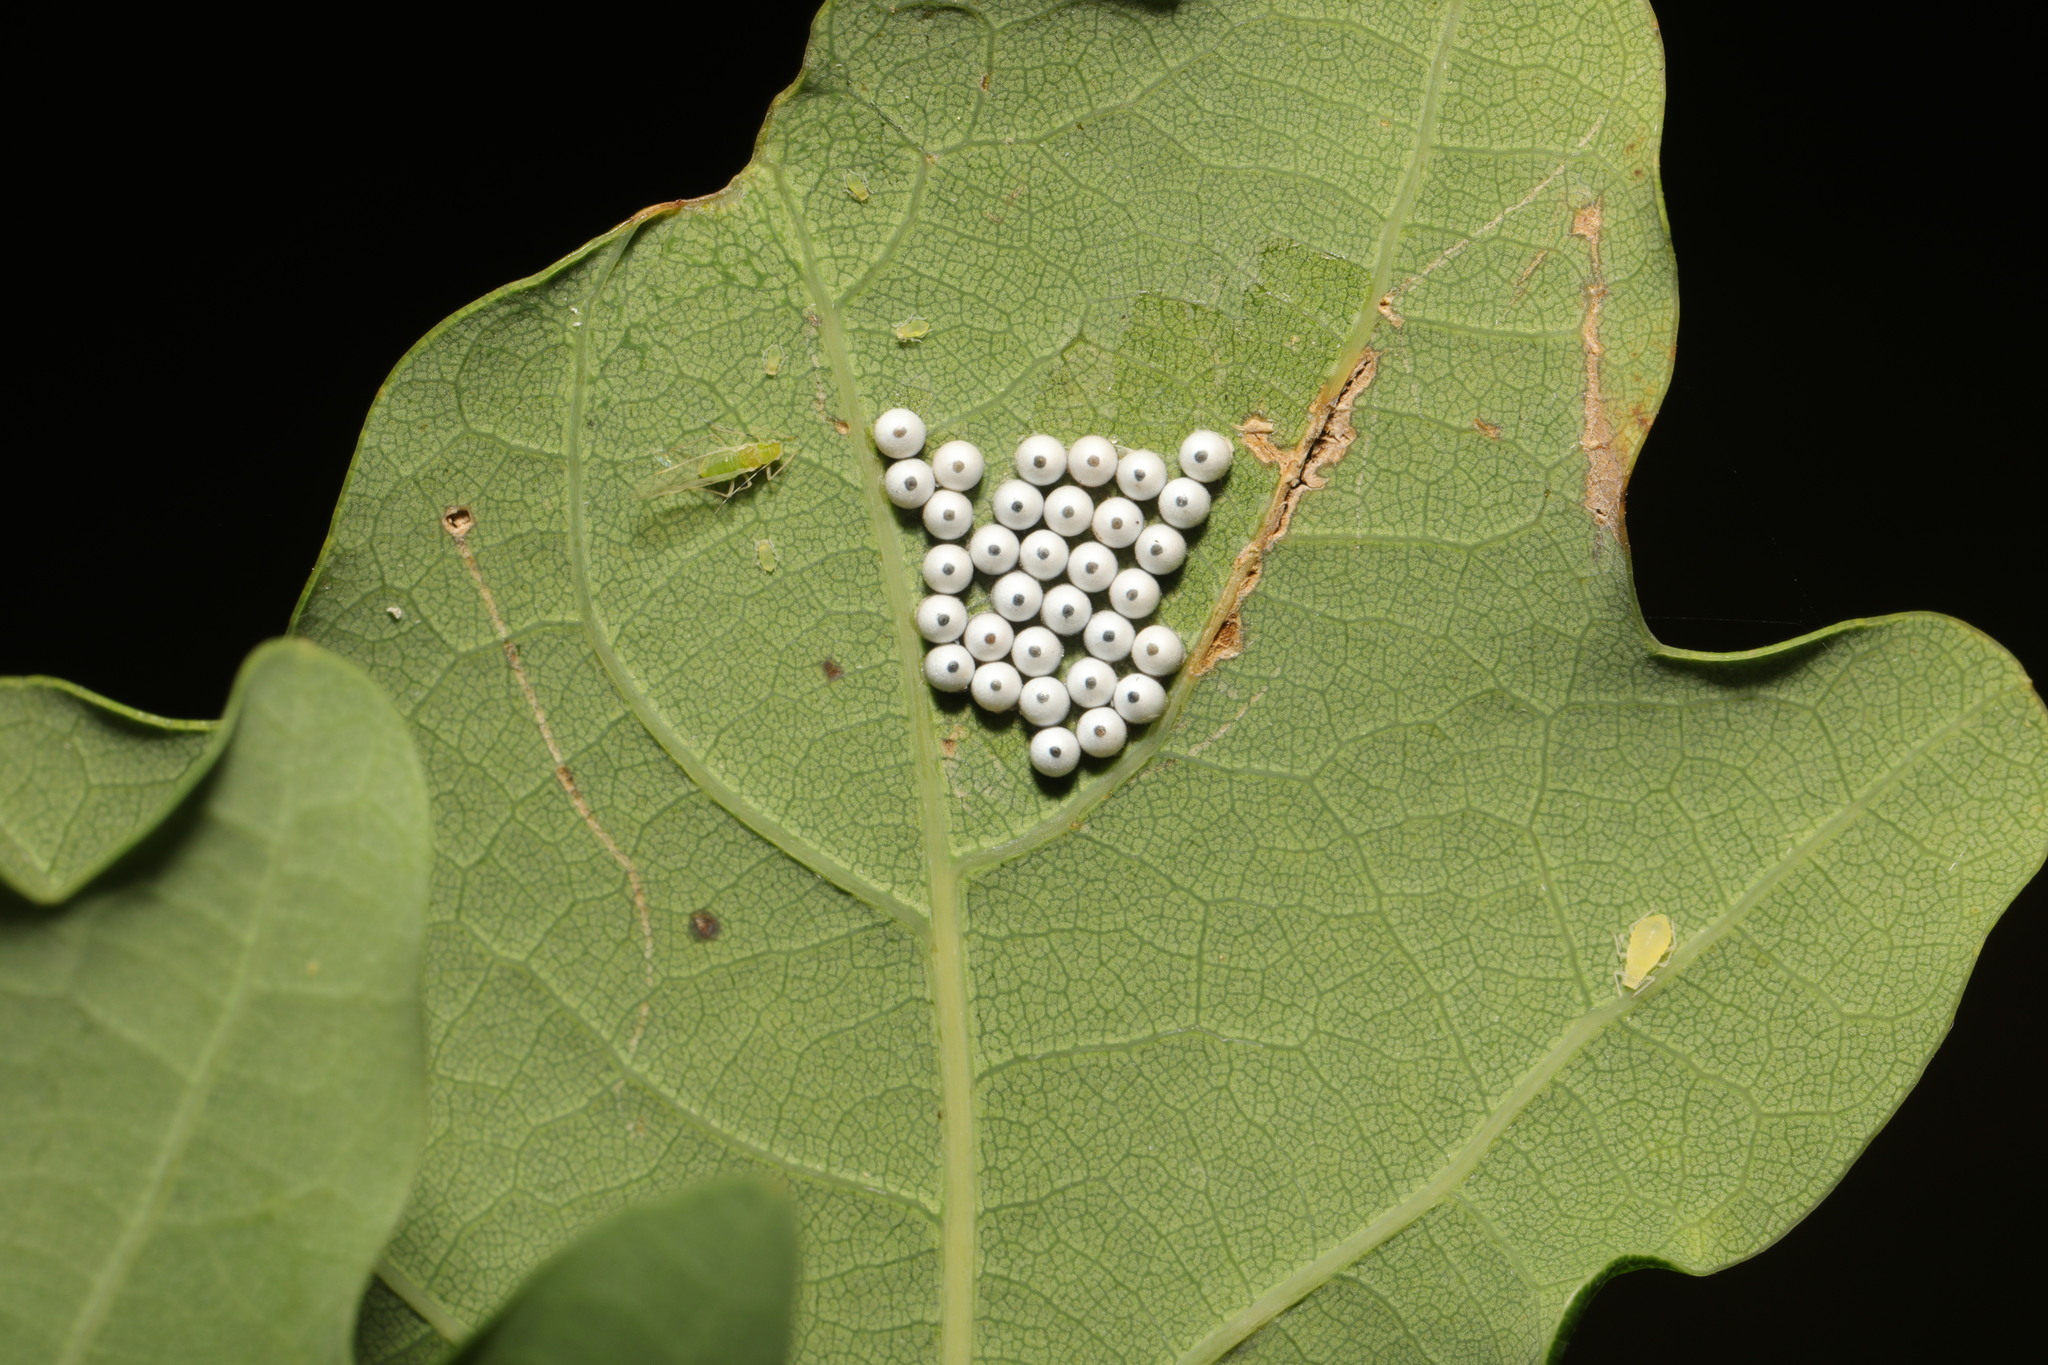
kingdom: Animalia
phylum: Arthropoda
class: Insecta
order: Lepidoptera
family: Notodontidae
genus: Phalera
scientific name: Phalera bucephala
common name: Buff-tip
